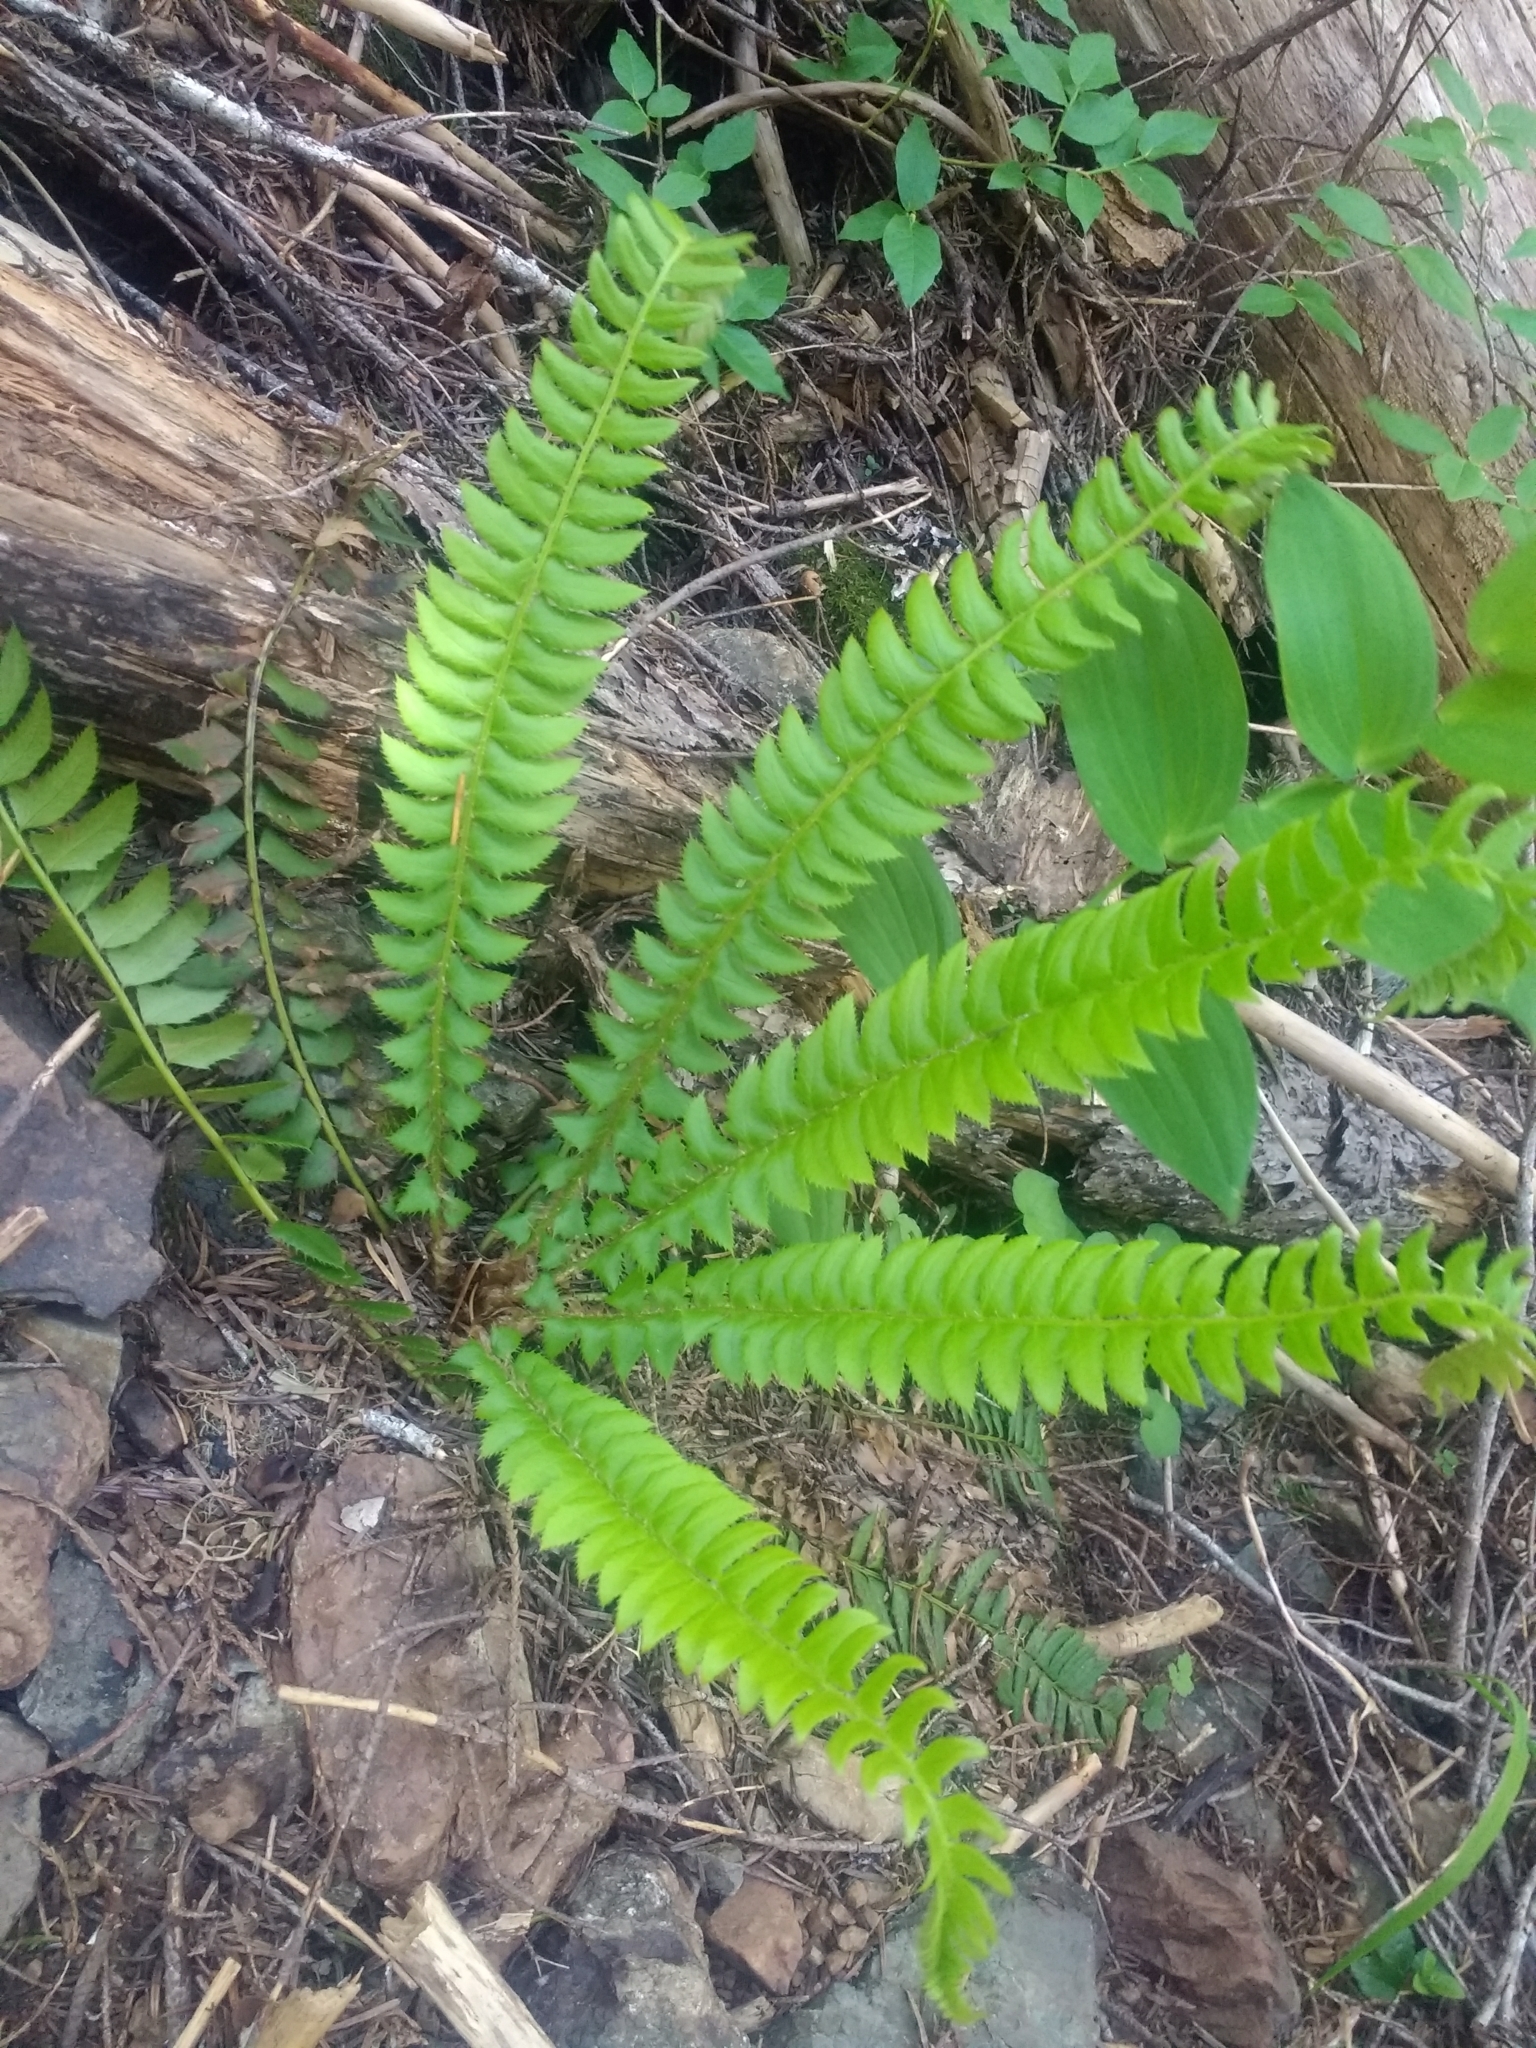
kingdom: Plantae
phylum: Tracheophyta
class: Polypodiopsida
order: Polypodiales
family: Dryopteridaceae
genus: Polystichum
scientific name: Polystichum lonchitis
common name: Holly fern
